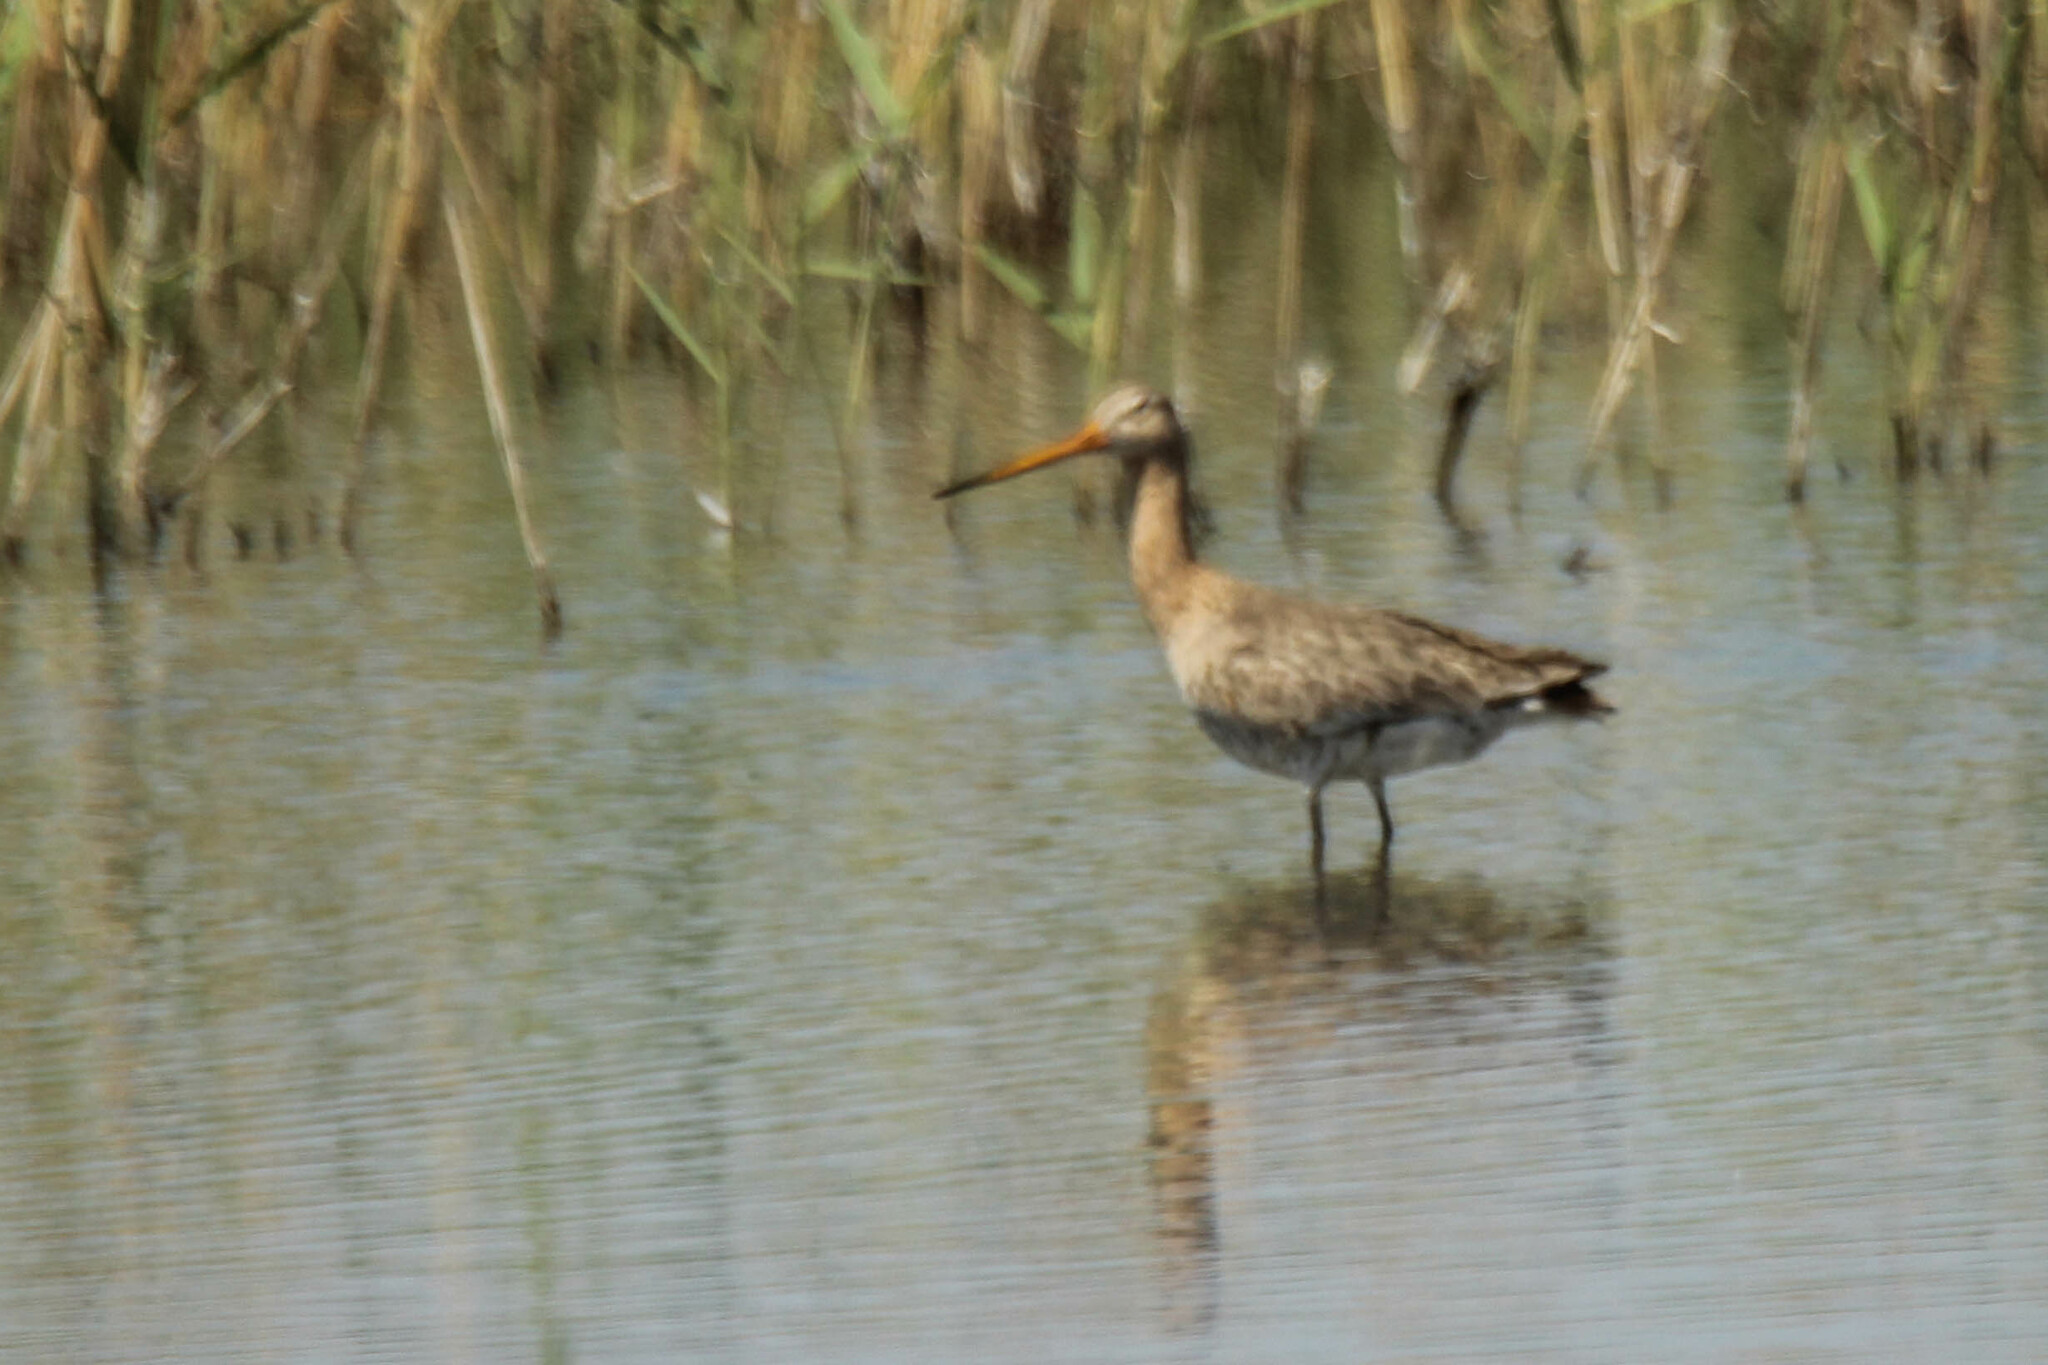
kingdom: Animalia
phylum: Chordata
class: Aves
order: Charadriiformes
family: Scolopacidae
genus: Limosa
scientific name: Limosa limosa
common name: Black-tailed godwit
